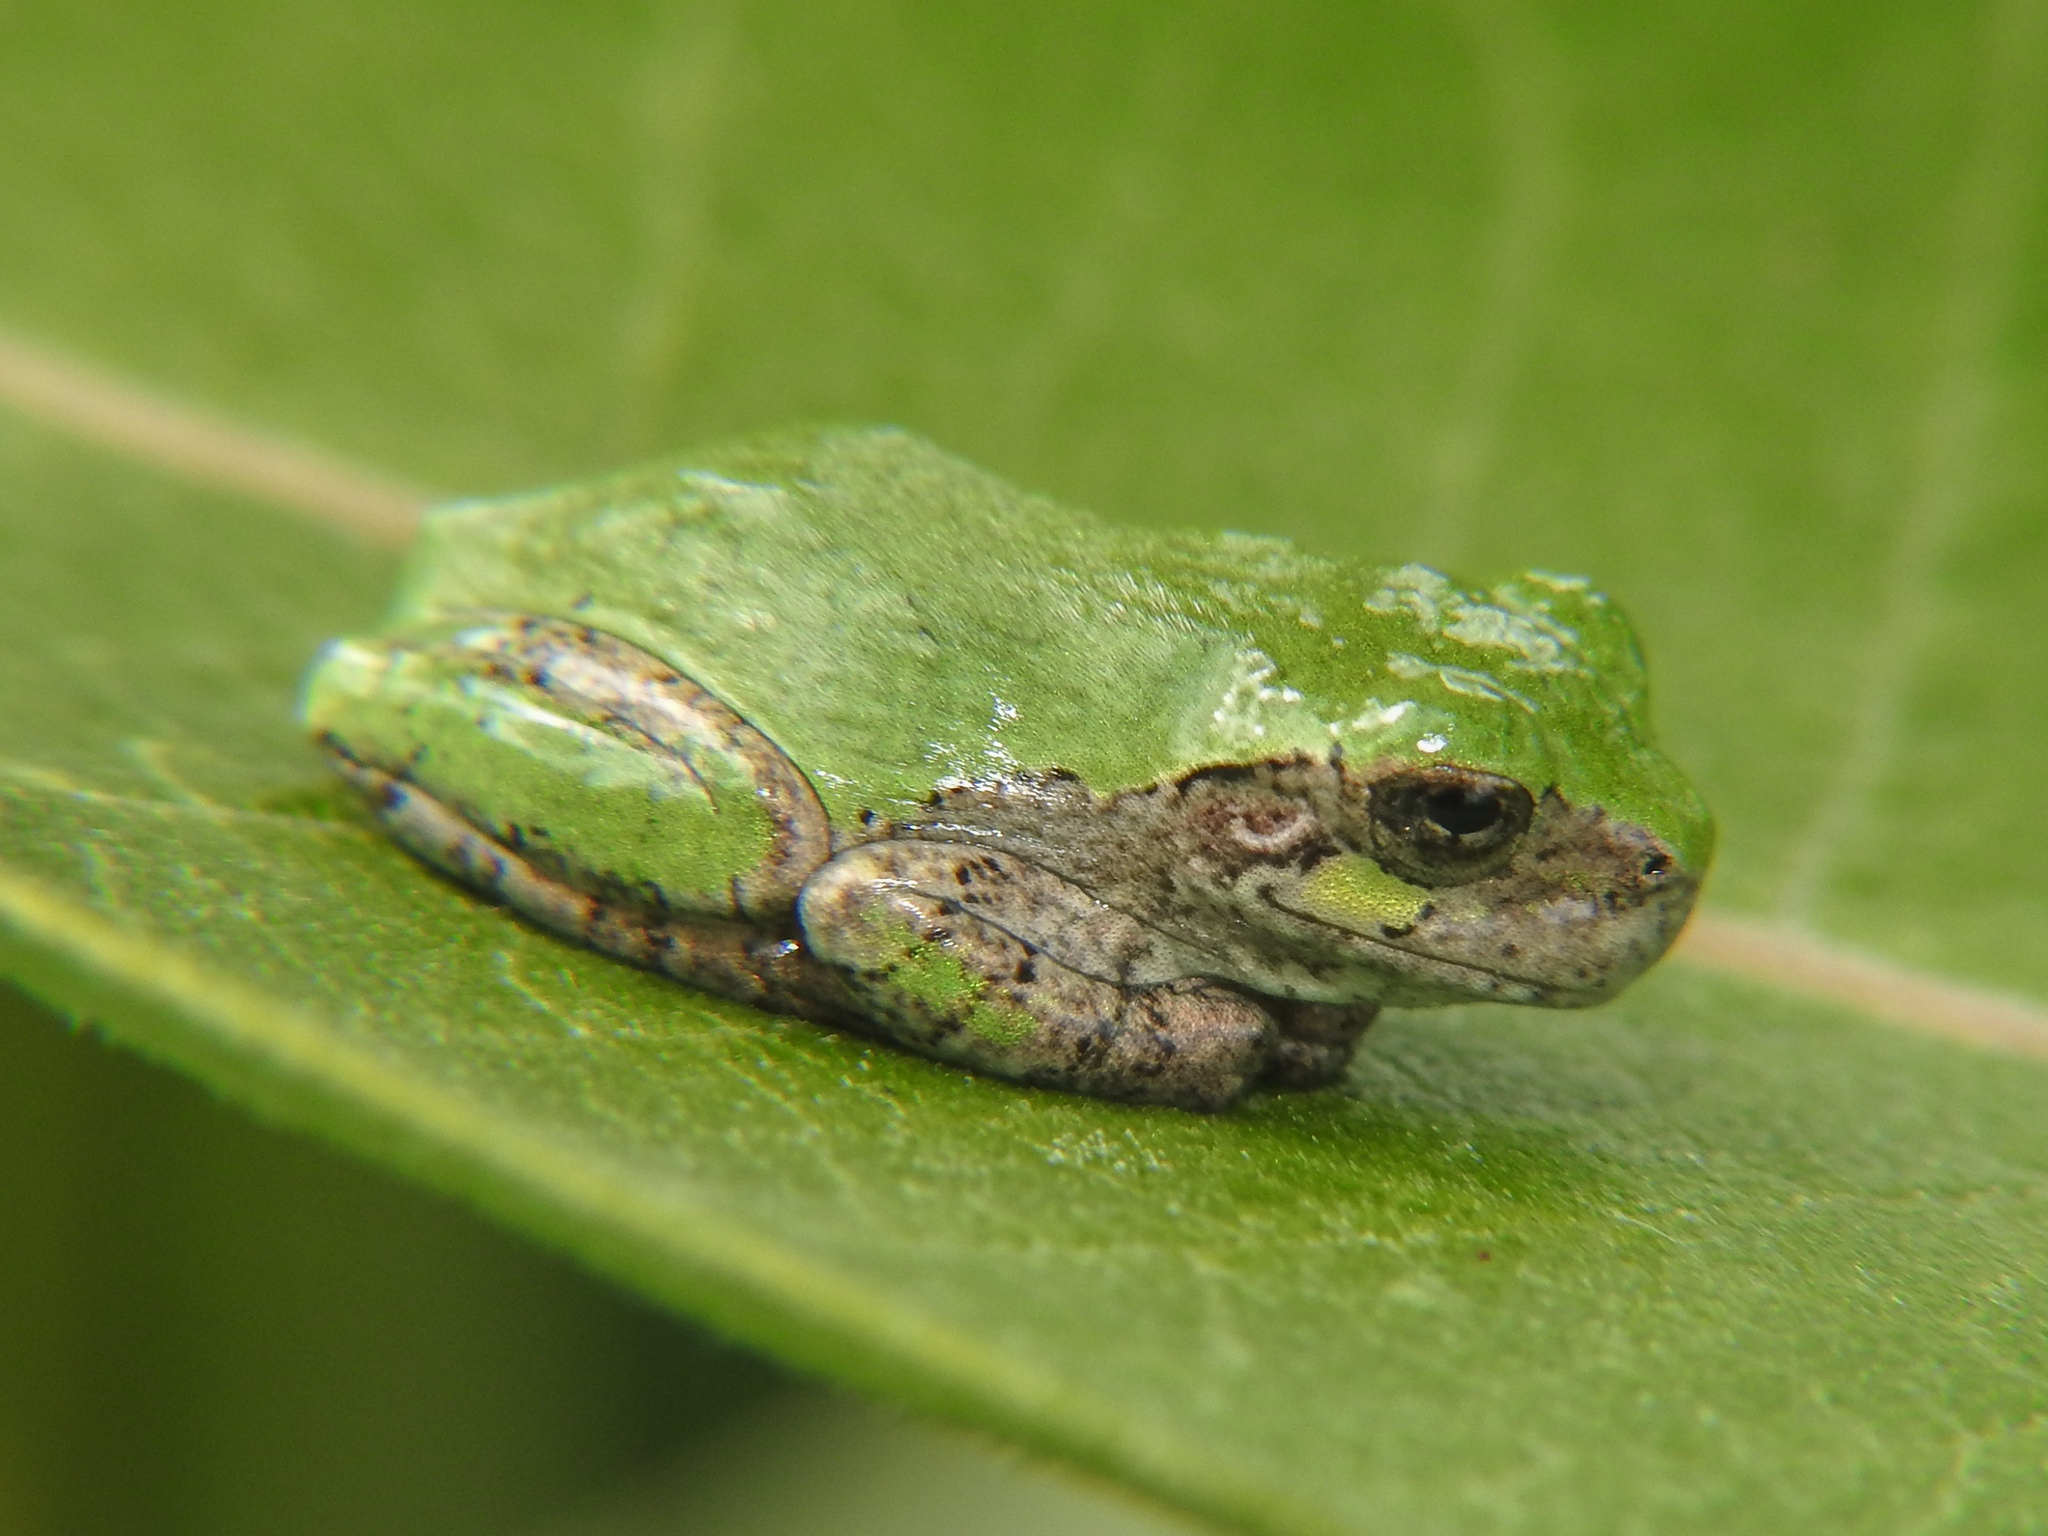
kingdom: Animalia
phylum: Chordata
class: Amphibia
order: Anura
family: Hylidae
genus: Dryophytes
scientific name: Dryophytes versicolor
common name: Gray treefrog
